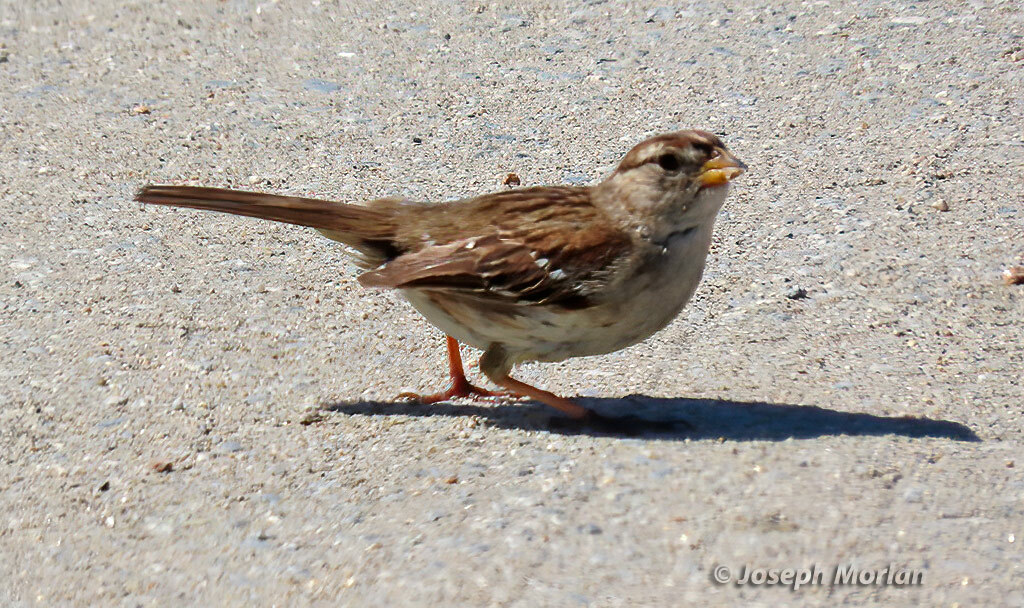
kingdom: Animalia
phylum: Chordata
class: Aves
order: Passeriformes
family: Passerellidae
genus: Zonotrichia
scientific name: Zonotrichia leucophrys
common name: White-crowned sparrow
